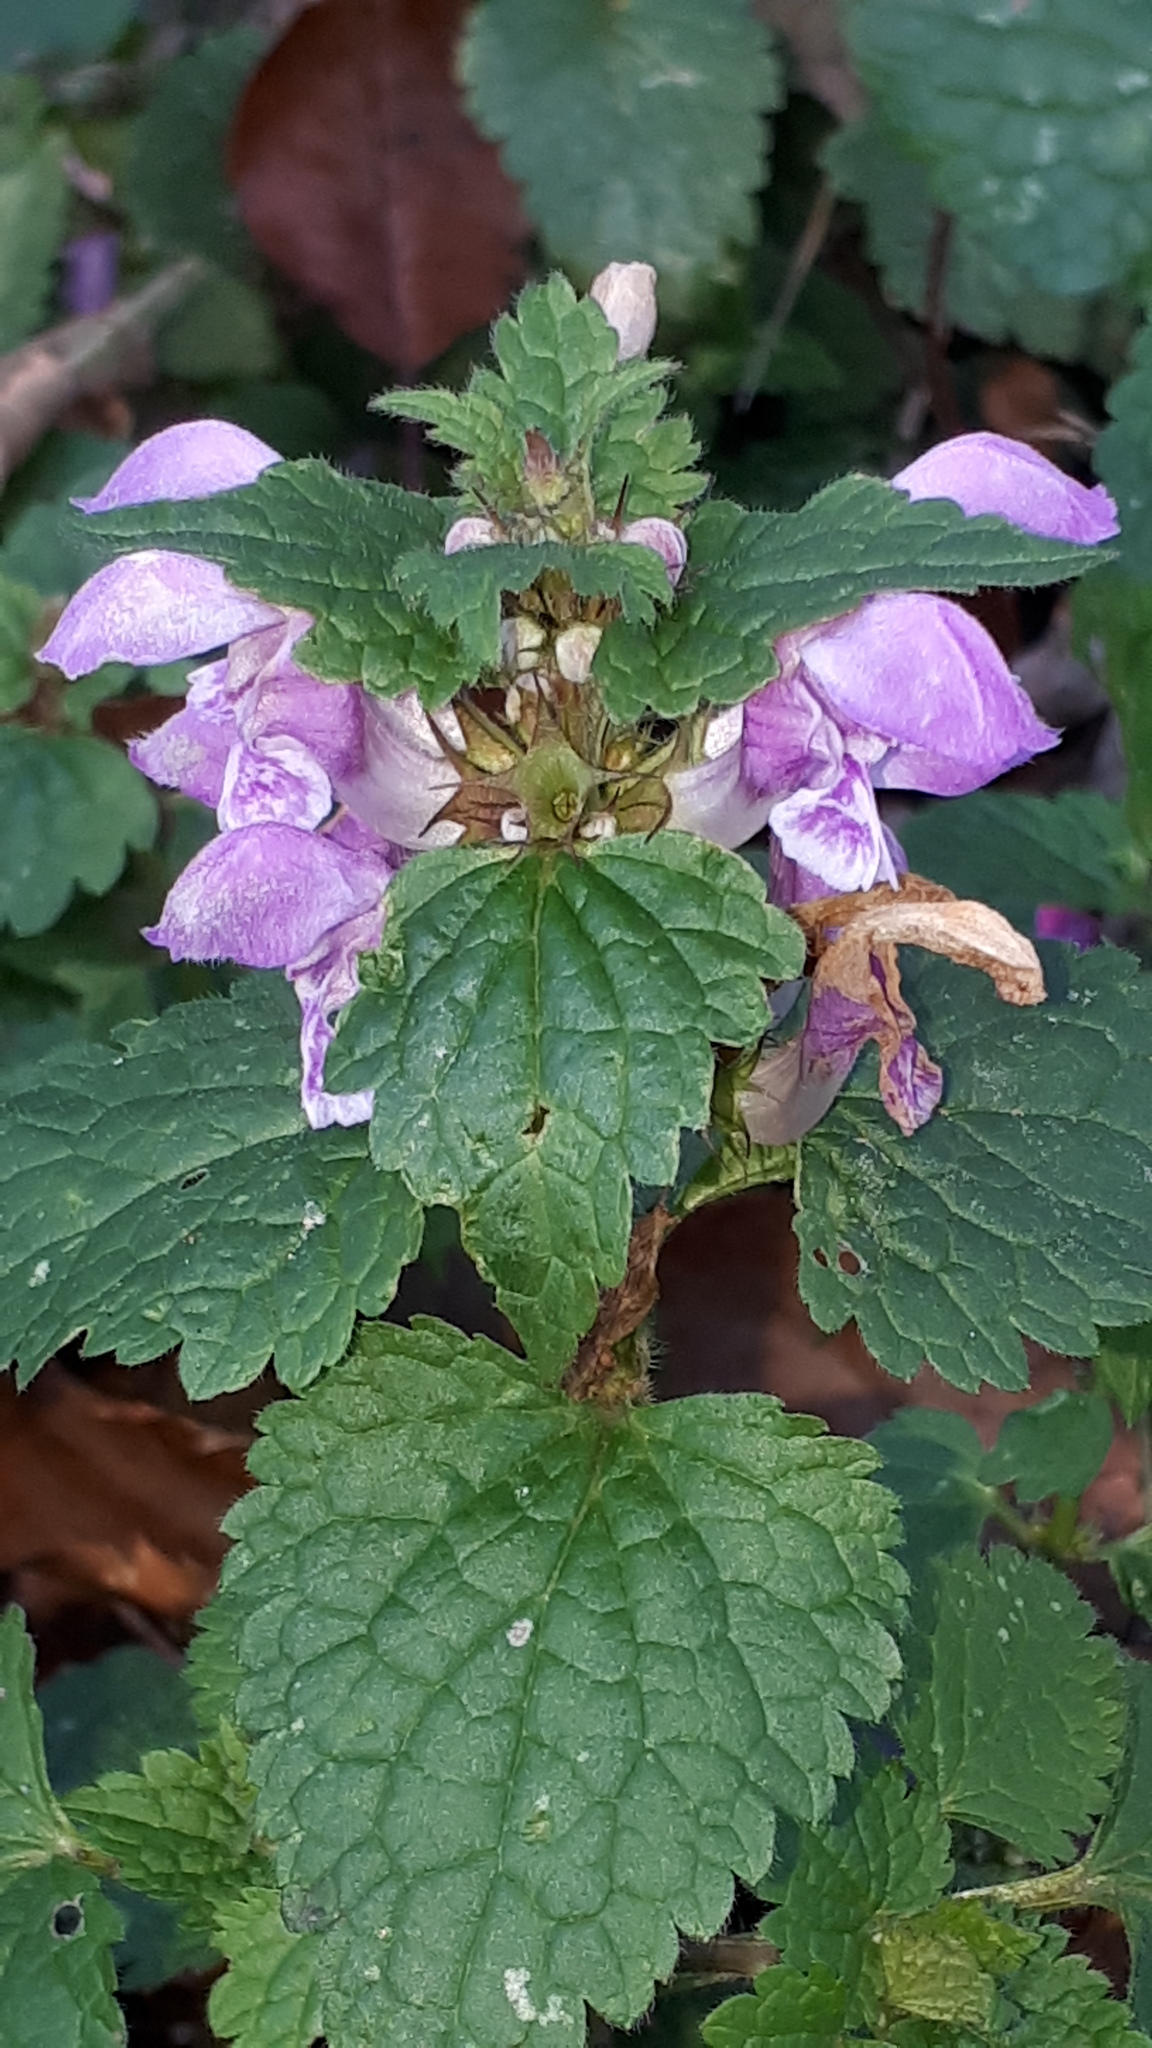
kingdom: Plantae
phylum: Tracheophyta
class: Magnoliopsida
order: Lamiales
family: Lamiaceae
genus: Lamium
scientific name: Lamium maculatum
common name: Spotted dead-nettle
